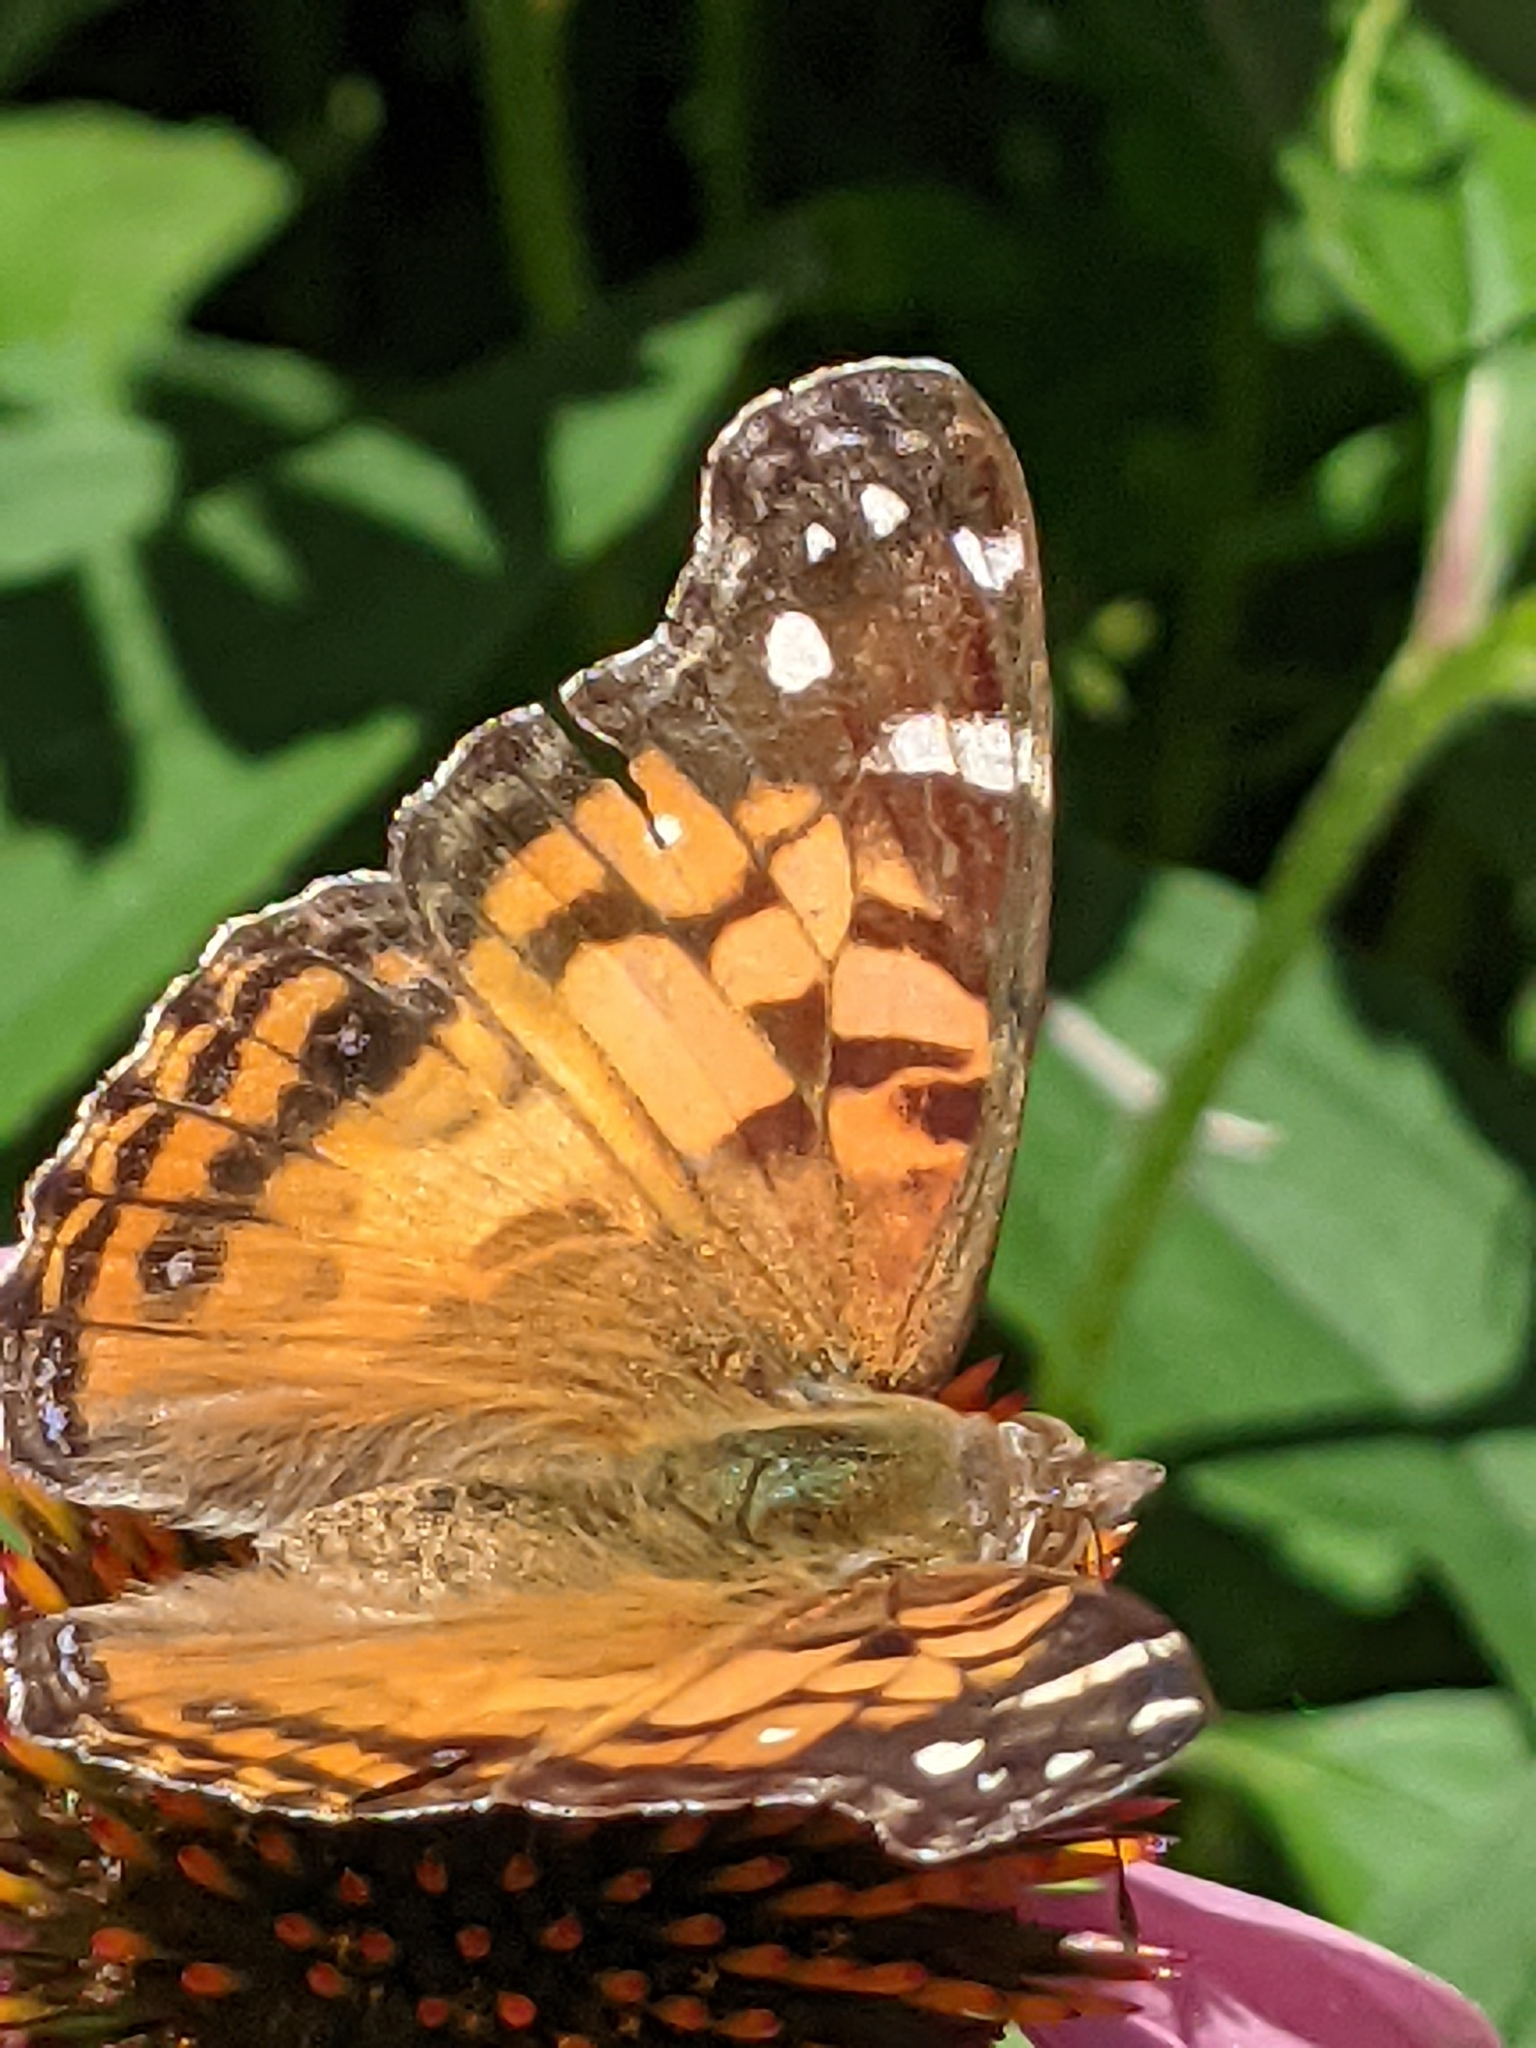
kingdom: Animalia
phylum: Arthropoda
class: Insecta
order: Lepidoptera
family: Nymphalidae
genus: Vanessa
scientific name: Vanessa virginiensis
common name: American lady
